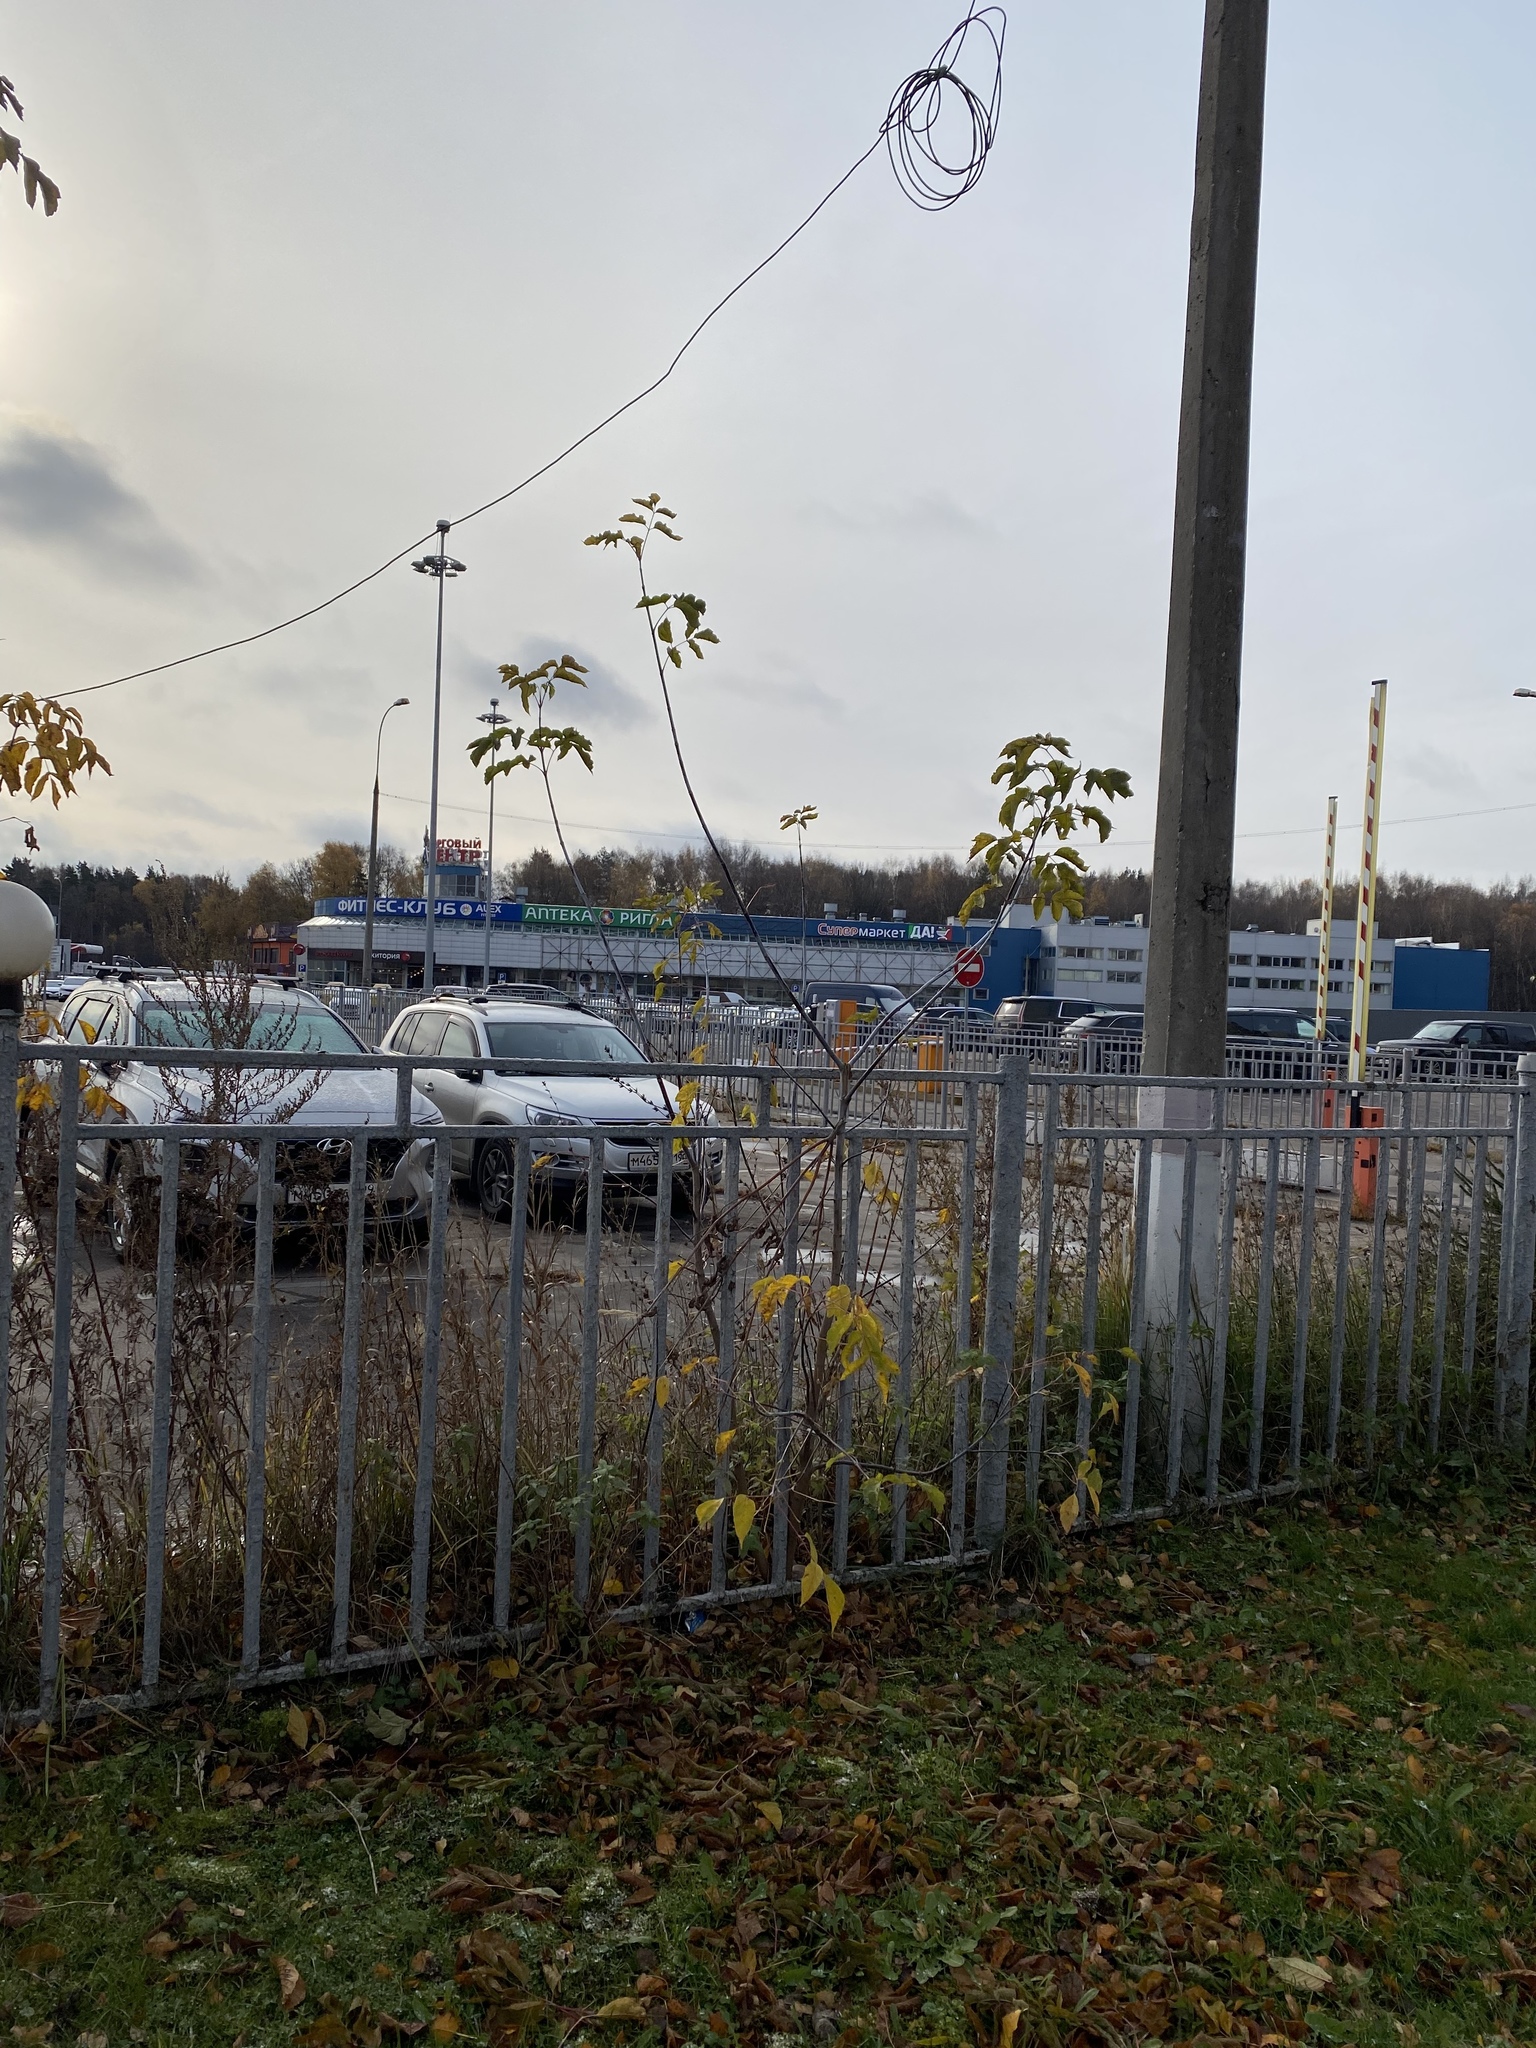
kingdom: Plantae
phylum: Tracheophyta
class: Magnoliopsida
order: Sapindales
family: Sapindaceae
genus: Acer
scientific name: Acer negundo
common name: Ashleaf maple
